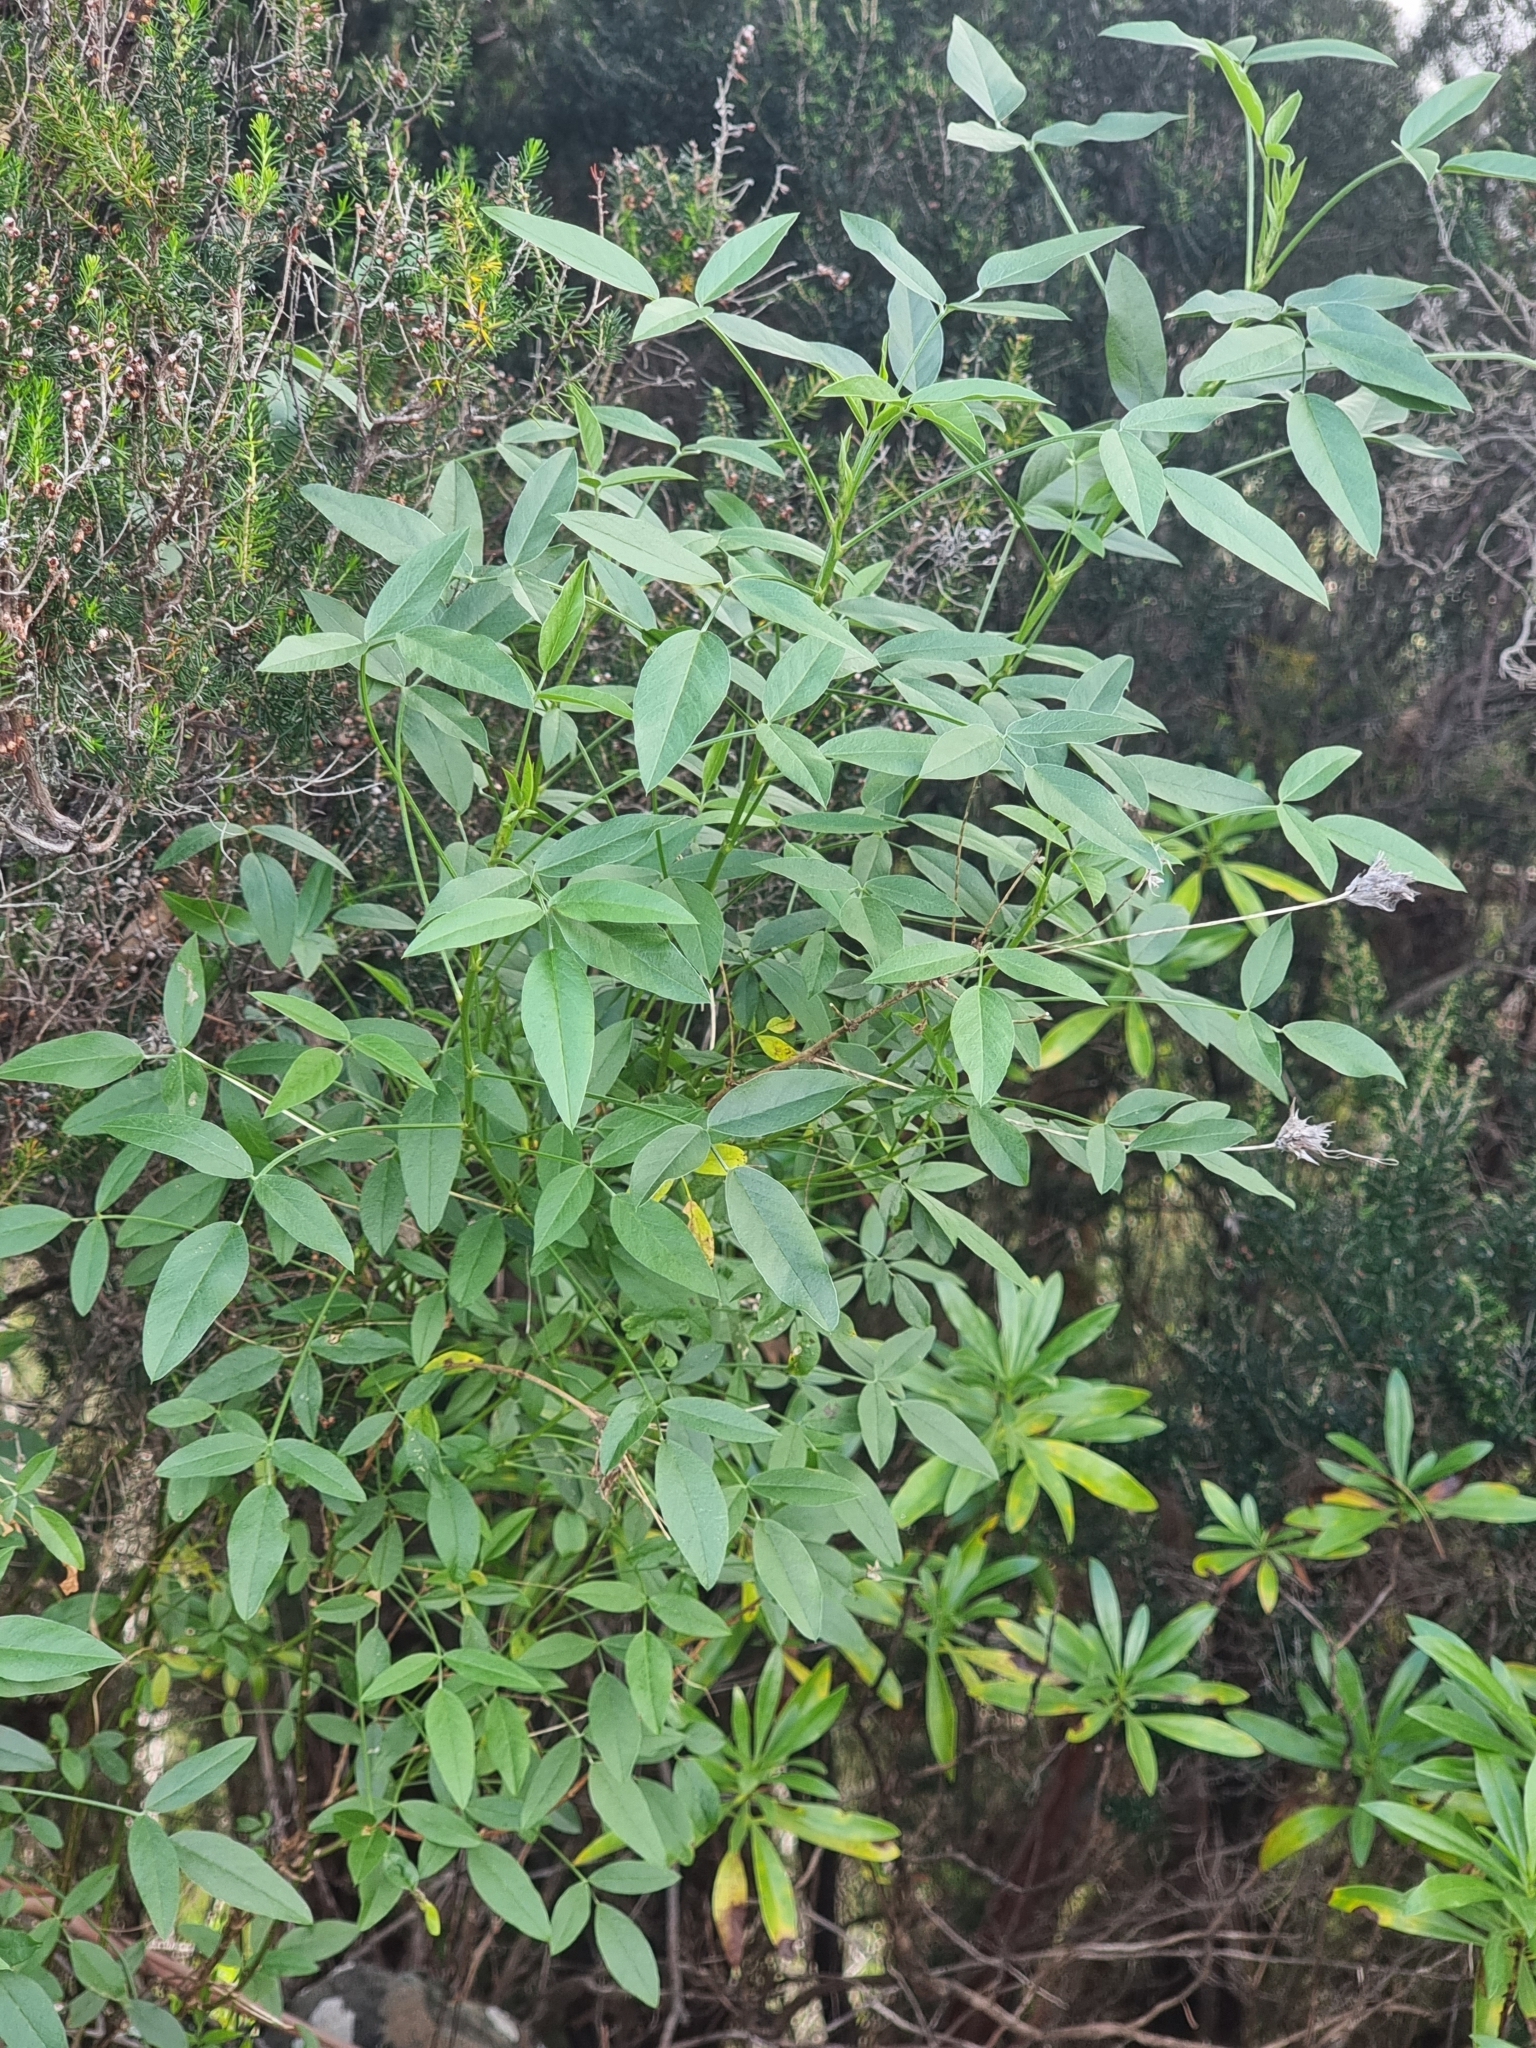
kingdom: Plantae
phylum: Tracheophyta
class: Magnoliopsida
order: Fabales
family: Fabaceae
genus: Bituminaria
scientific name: Bituminaria bituminosa
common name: Arabian pea
